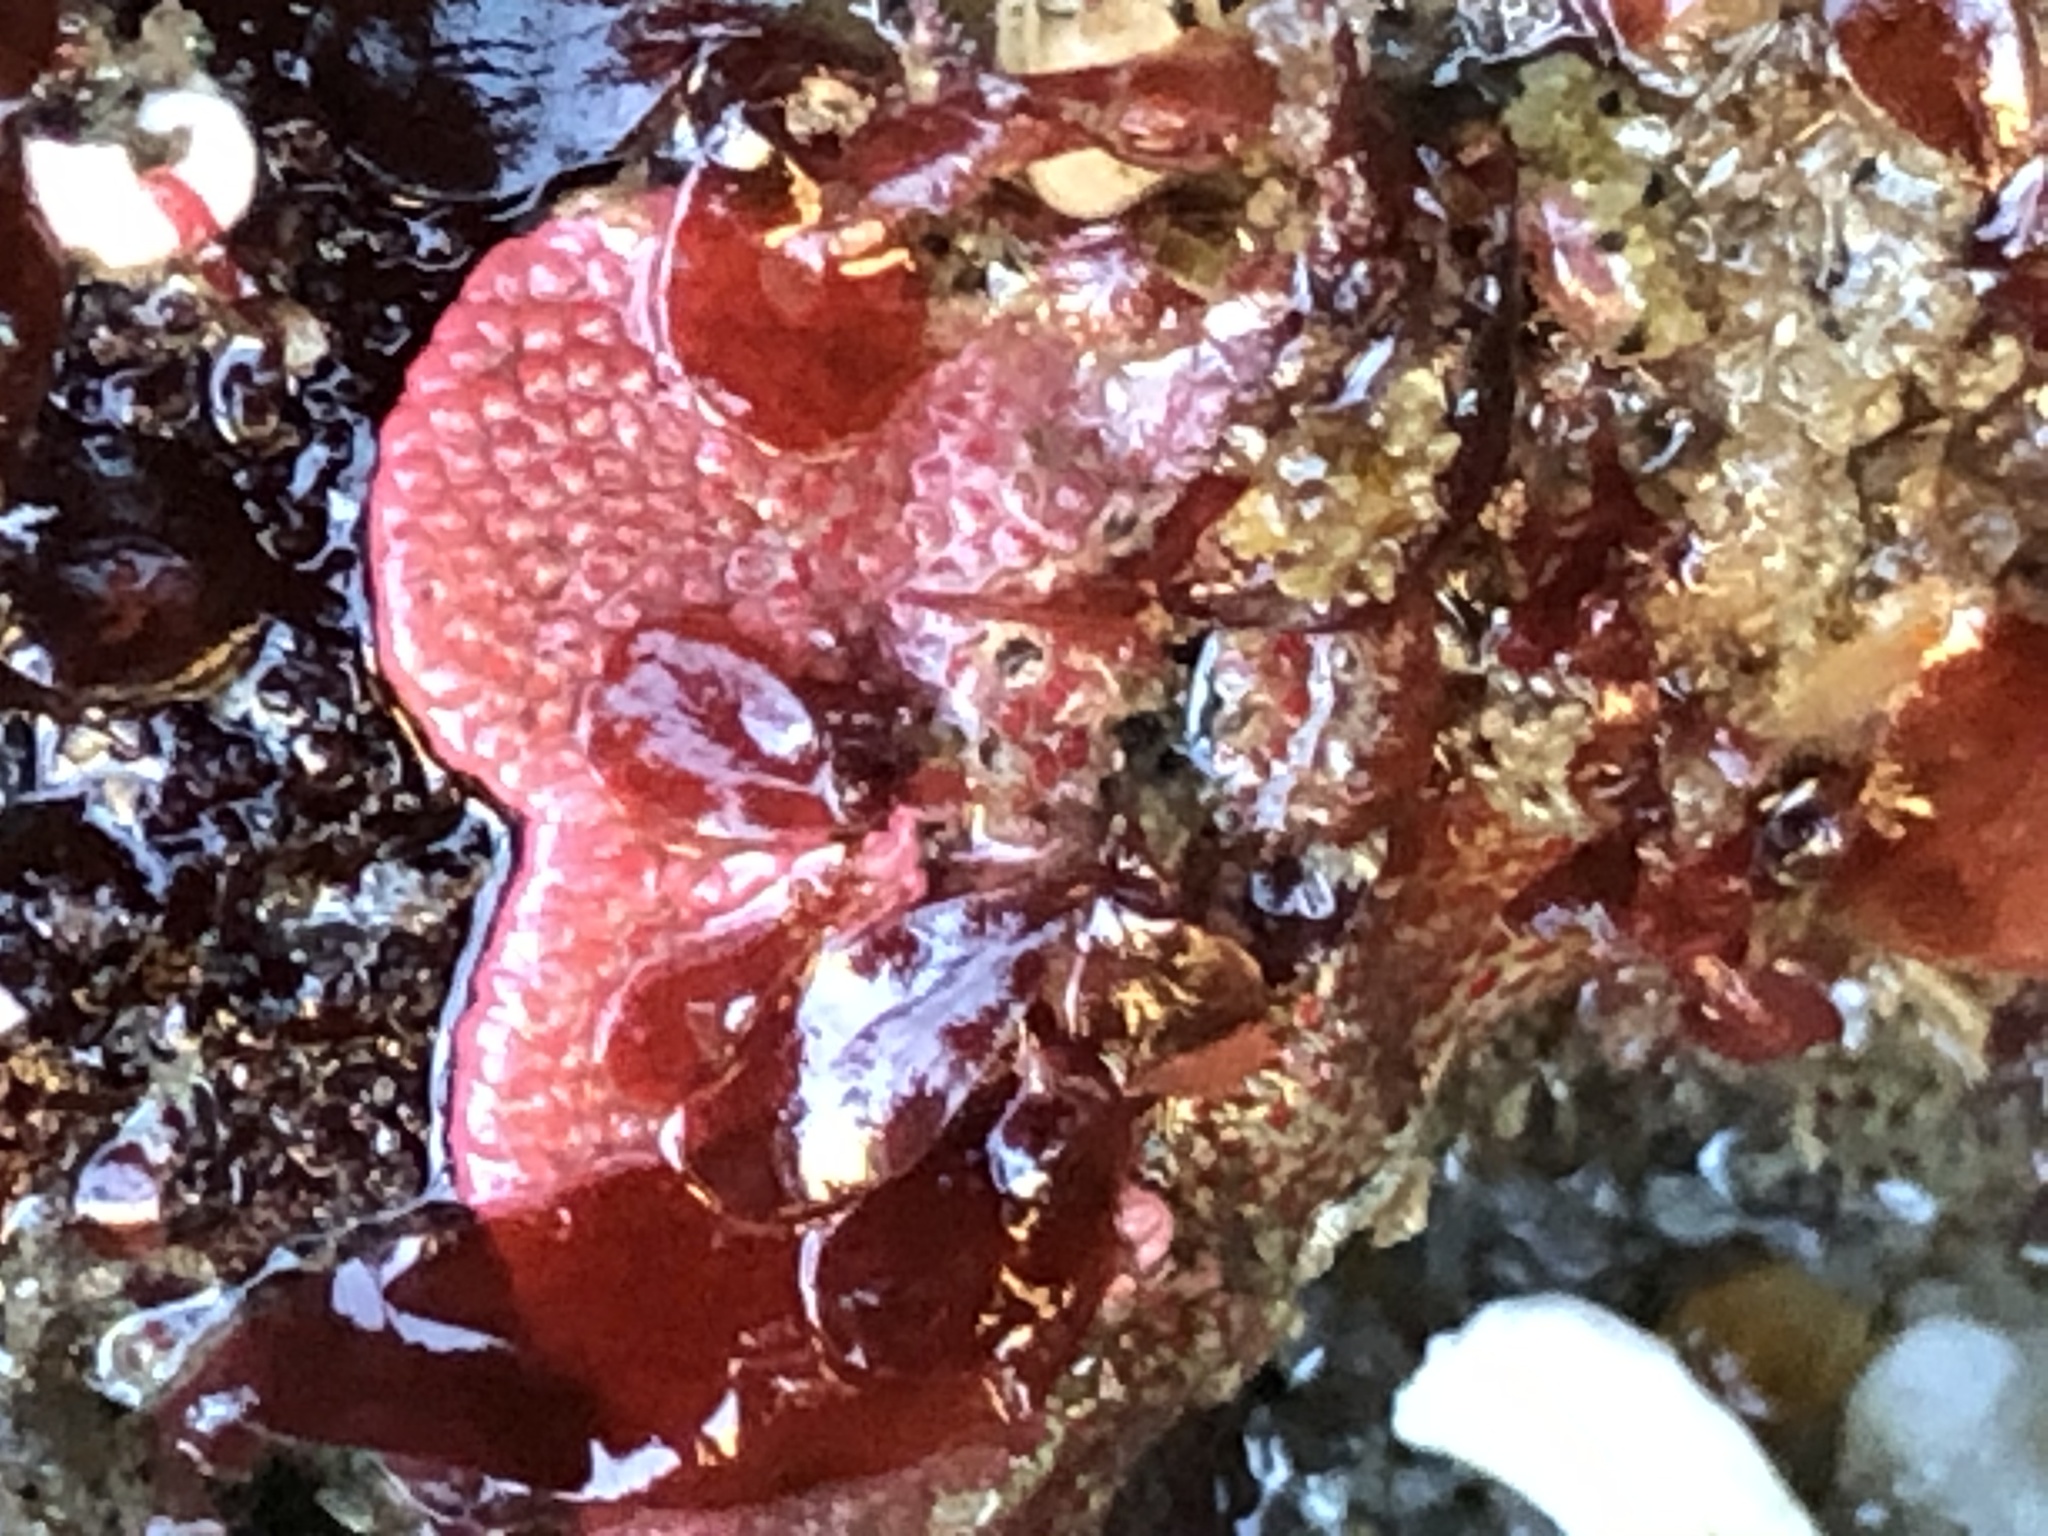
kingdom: Animalia
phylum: Bryozoa
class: Gymnolaemata
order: Cheilostomatida
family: Eurystomellidae
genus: Integripelta
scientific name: Integripelta bilabiata
